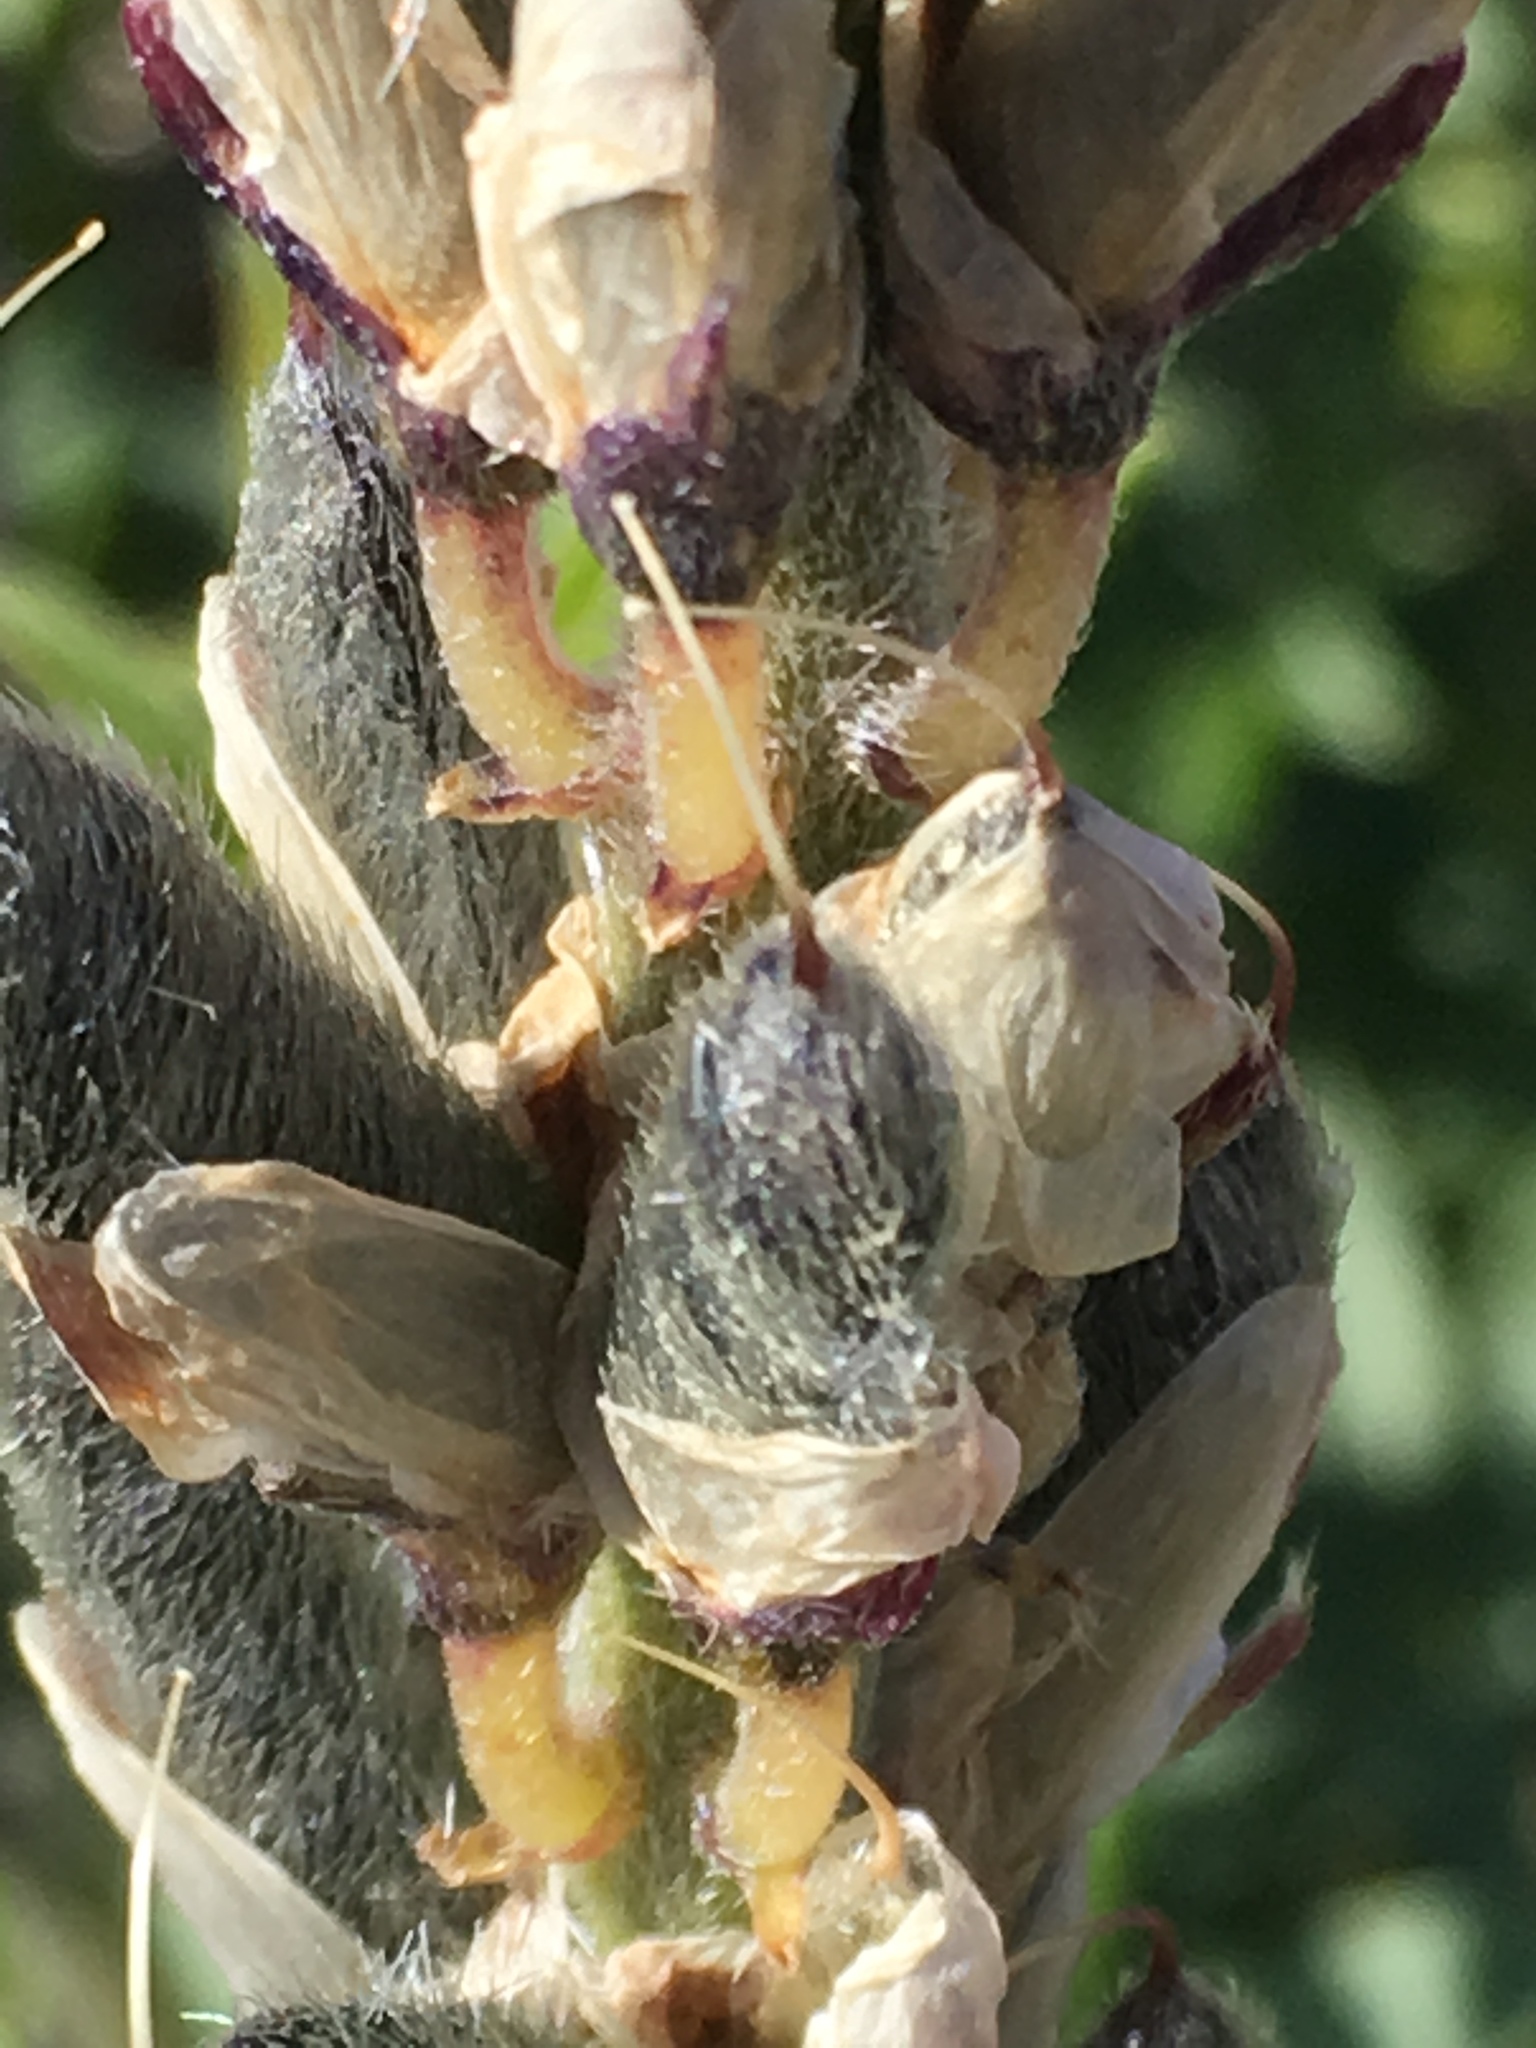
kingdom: Plantae
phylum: Tracheophyta
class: Magnoliopsida
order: Fabales
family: Fabaceae
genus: Lupinus
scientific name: Lupinus arizonicus
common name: Arizona lupine
